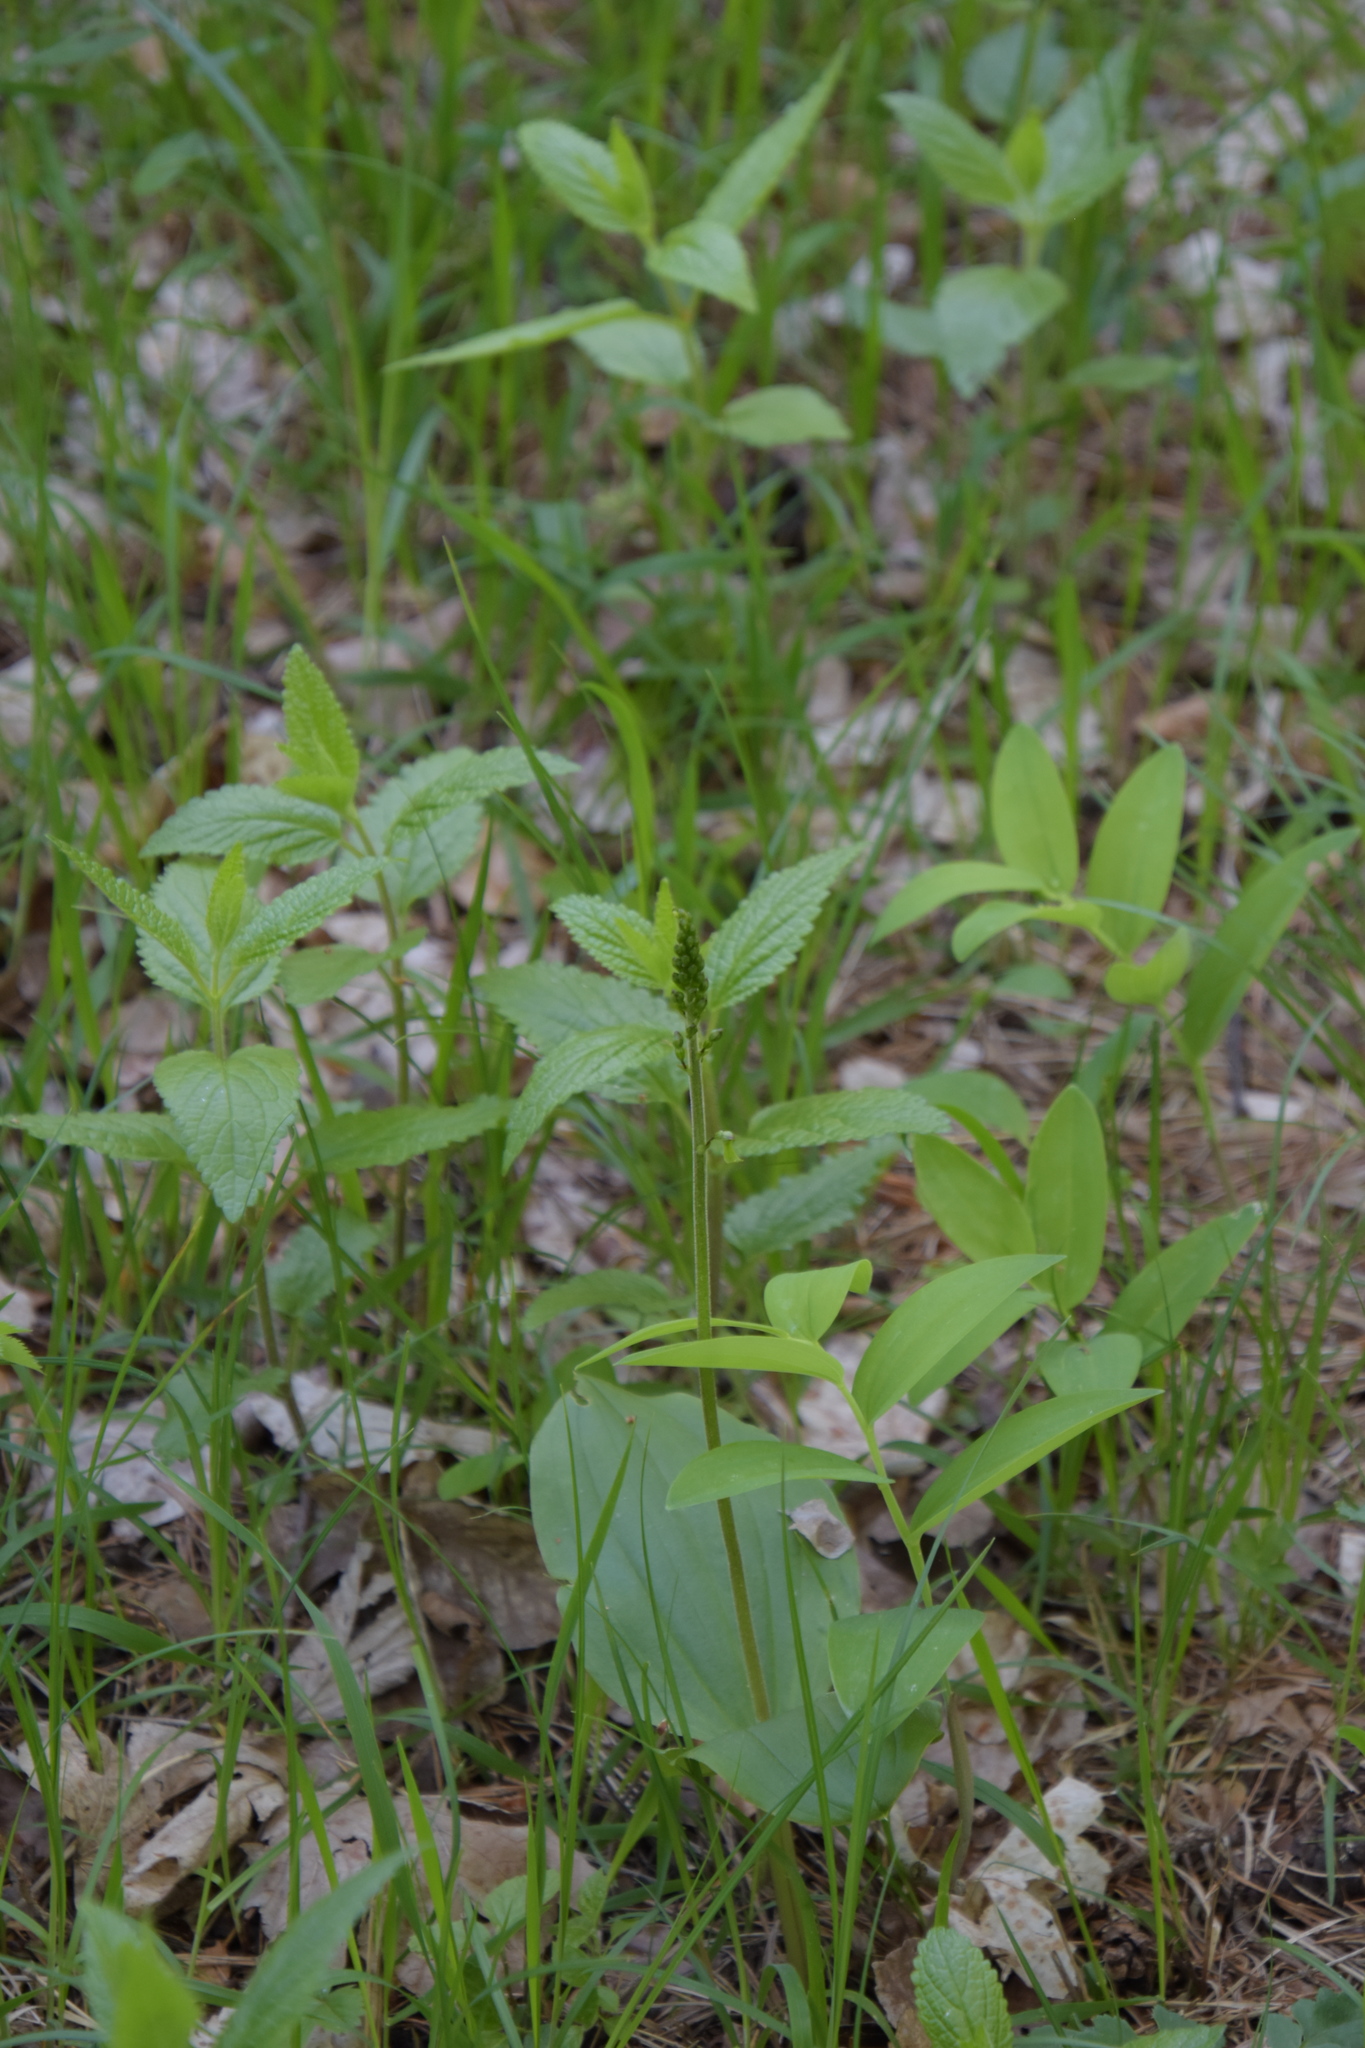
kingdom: Plantae
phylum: Tracheophyta
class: Liliopsida
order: Asparagales
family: Orchidaceae
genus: Neottia
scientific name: Neottia ovata
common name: Common twayblade
